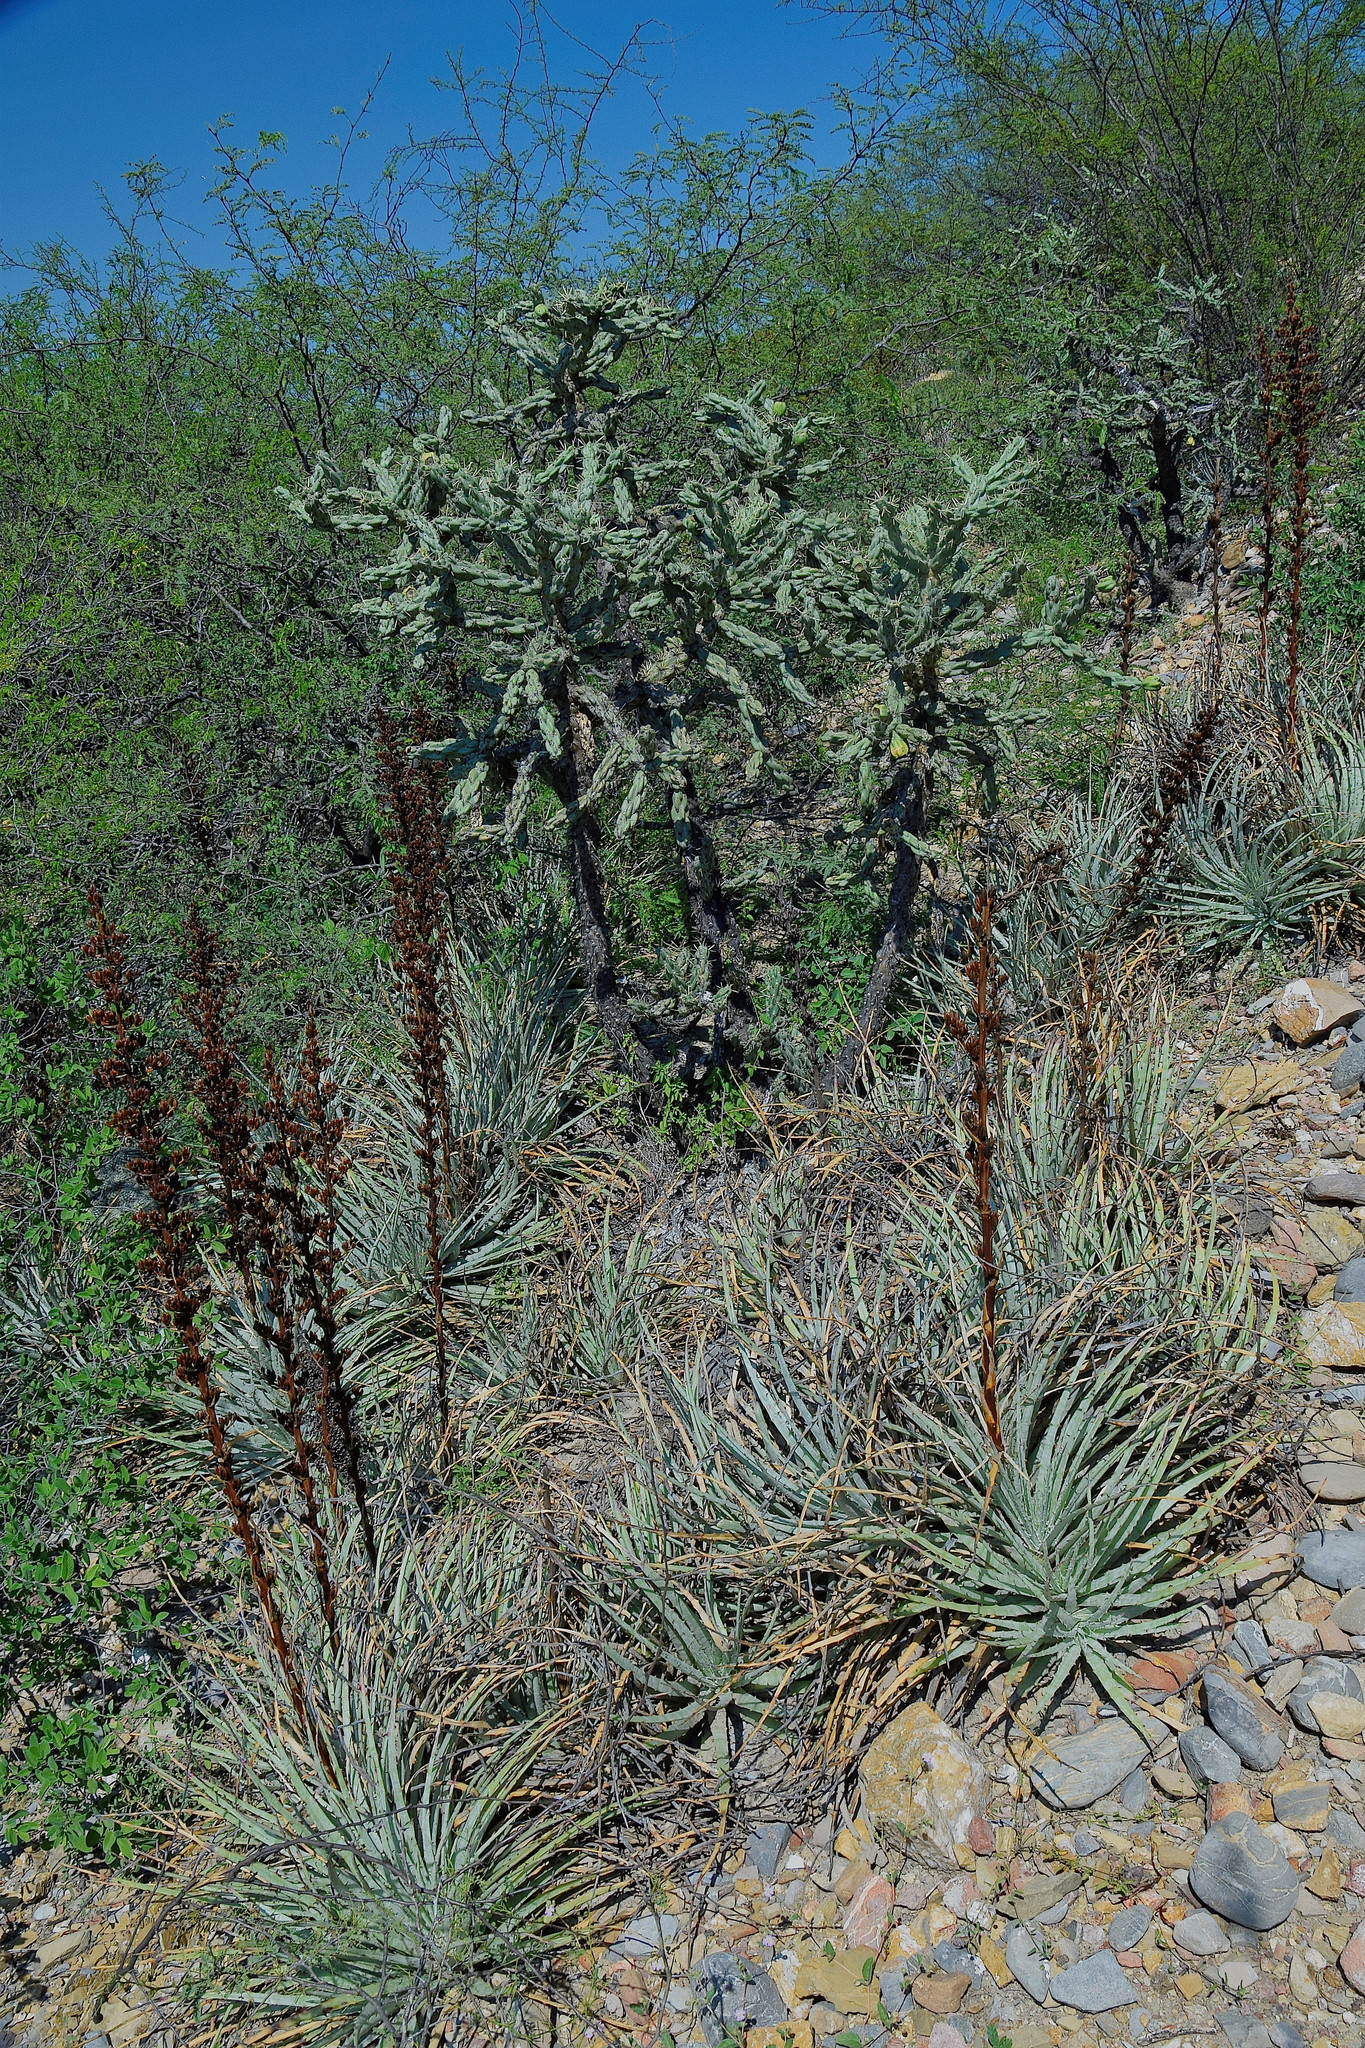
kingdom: Plantae
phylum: Tracheophyta
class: Liliopsida
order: Poales
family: Bromeliaceae
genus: Hechtia
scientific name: Hechtia podantha
